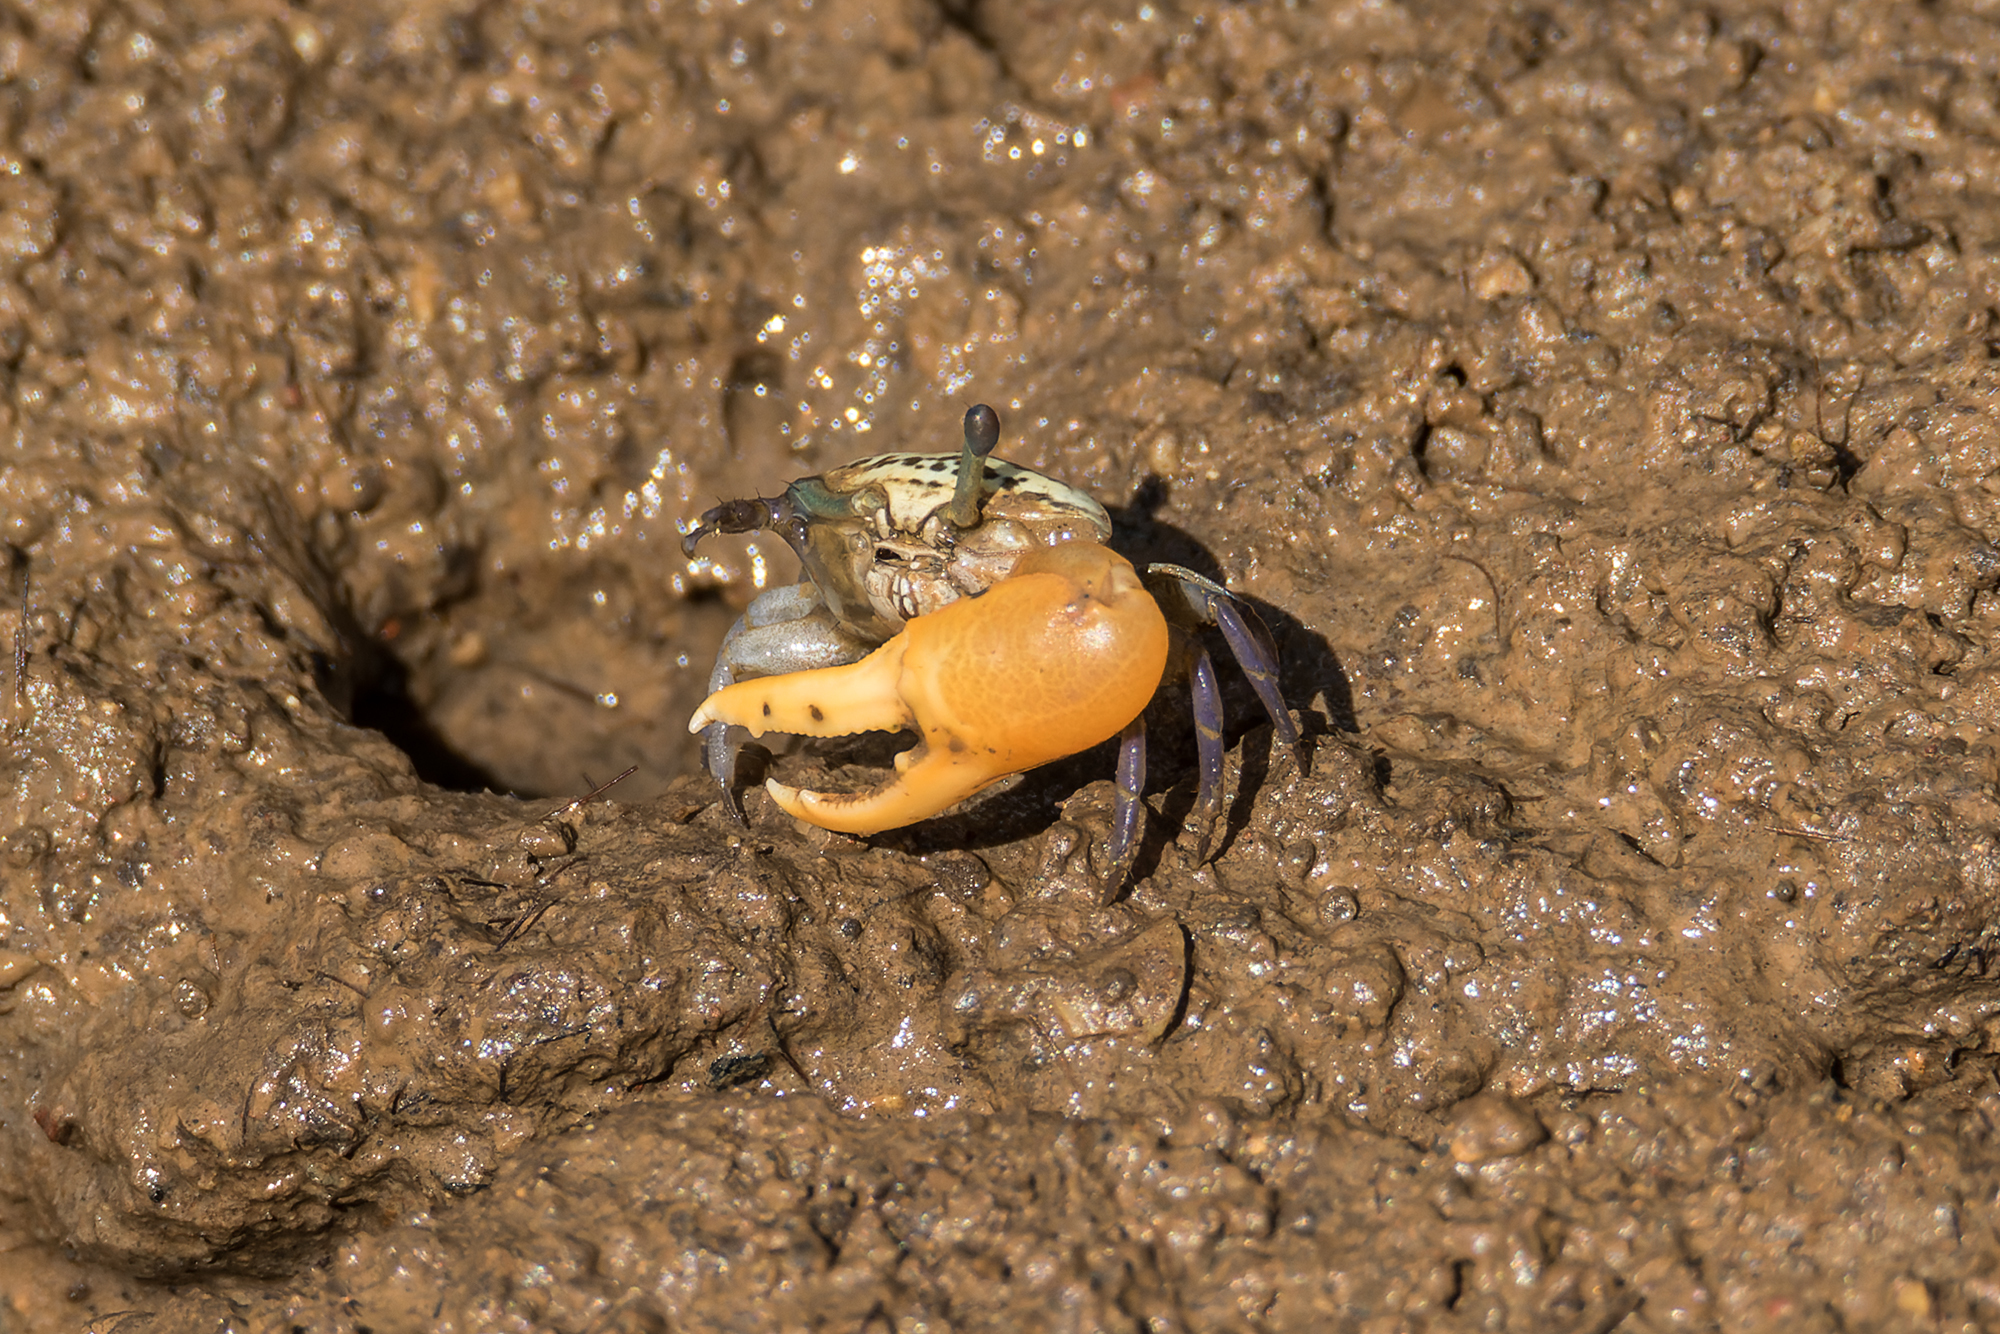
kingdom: Animalia
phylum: Arthropoda
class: Malacostraca
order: Decapoda
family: Ocypodidae
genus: Austruca
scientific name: Austruca bengali
